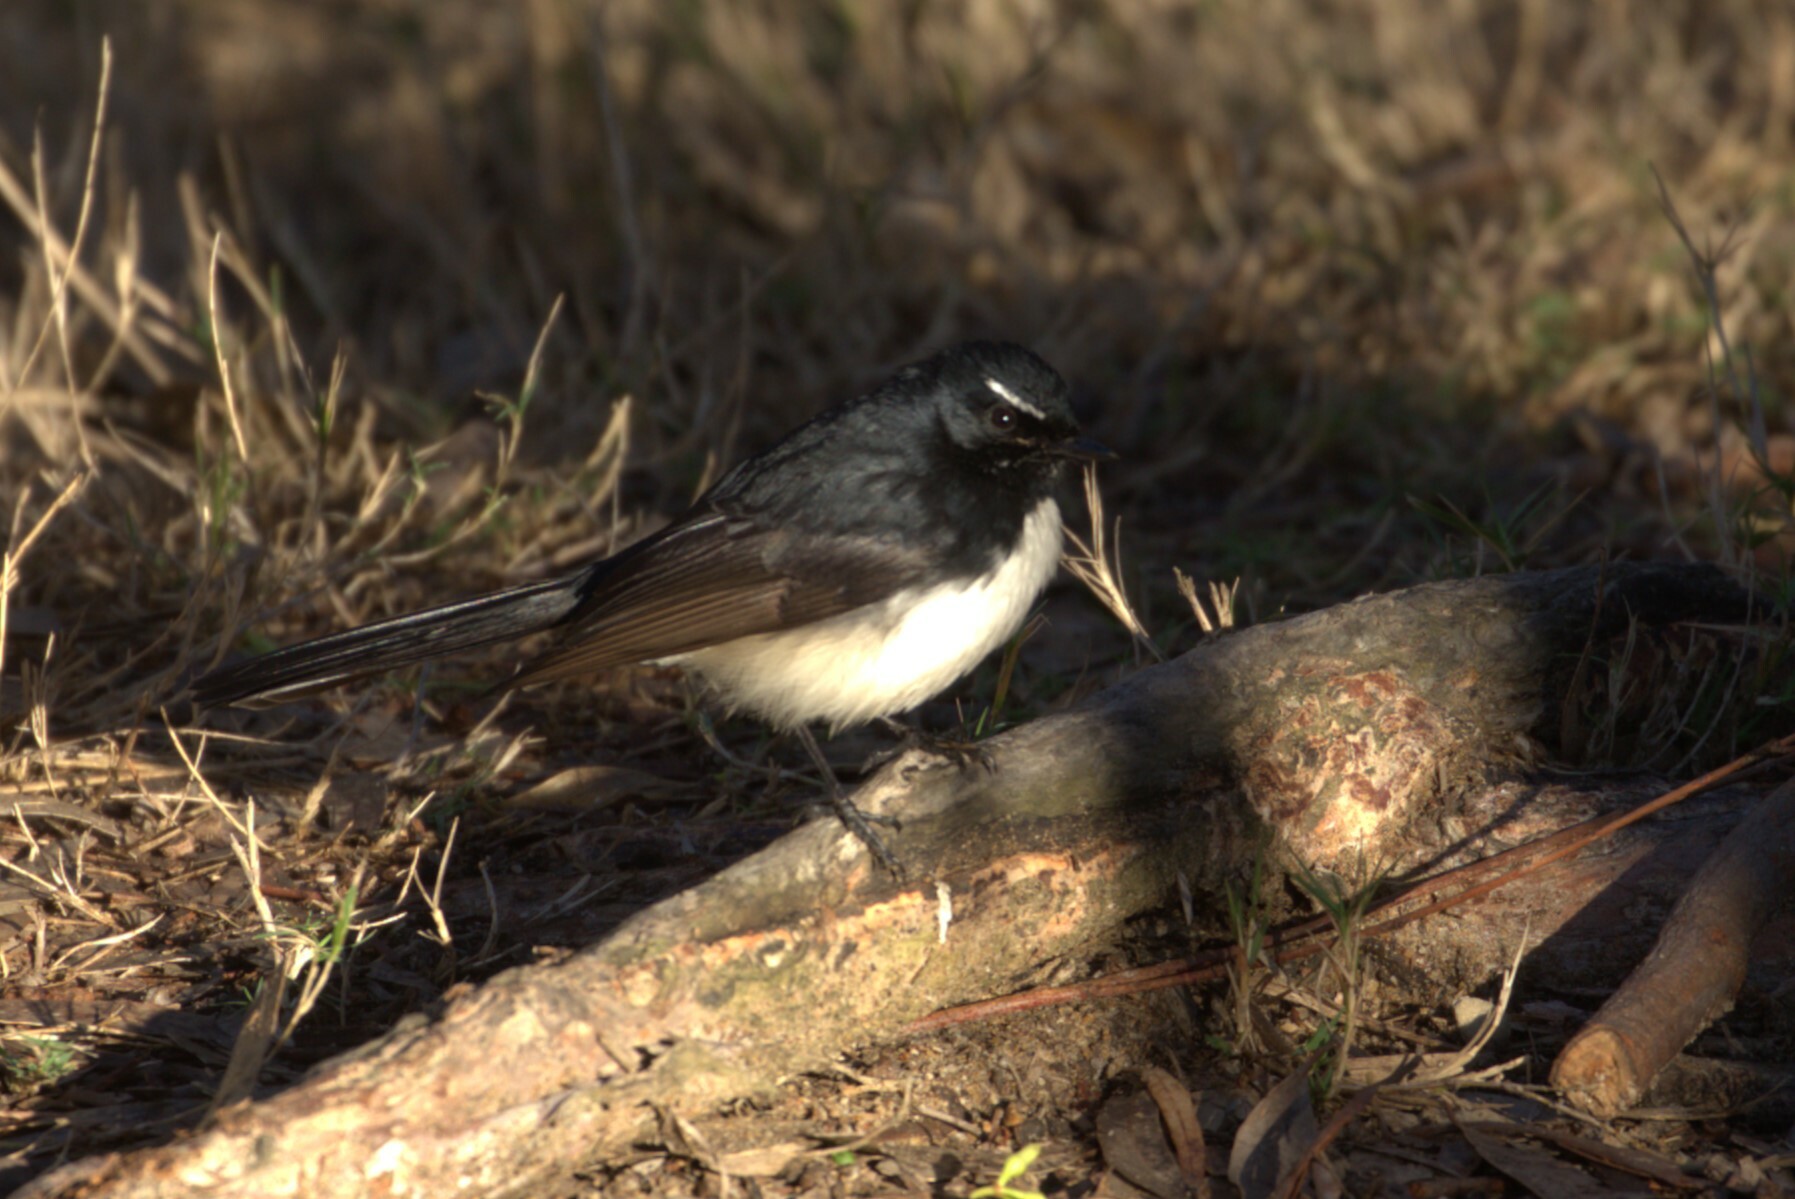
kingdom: Animalia
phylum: Chordata
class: Aves
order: Passeriformes
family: Rhipiduridae
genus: Rhipidura
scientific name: Rhipidura leucophrys
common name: Willie wagtail
